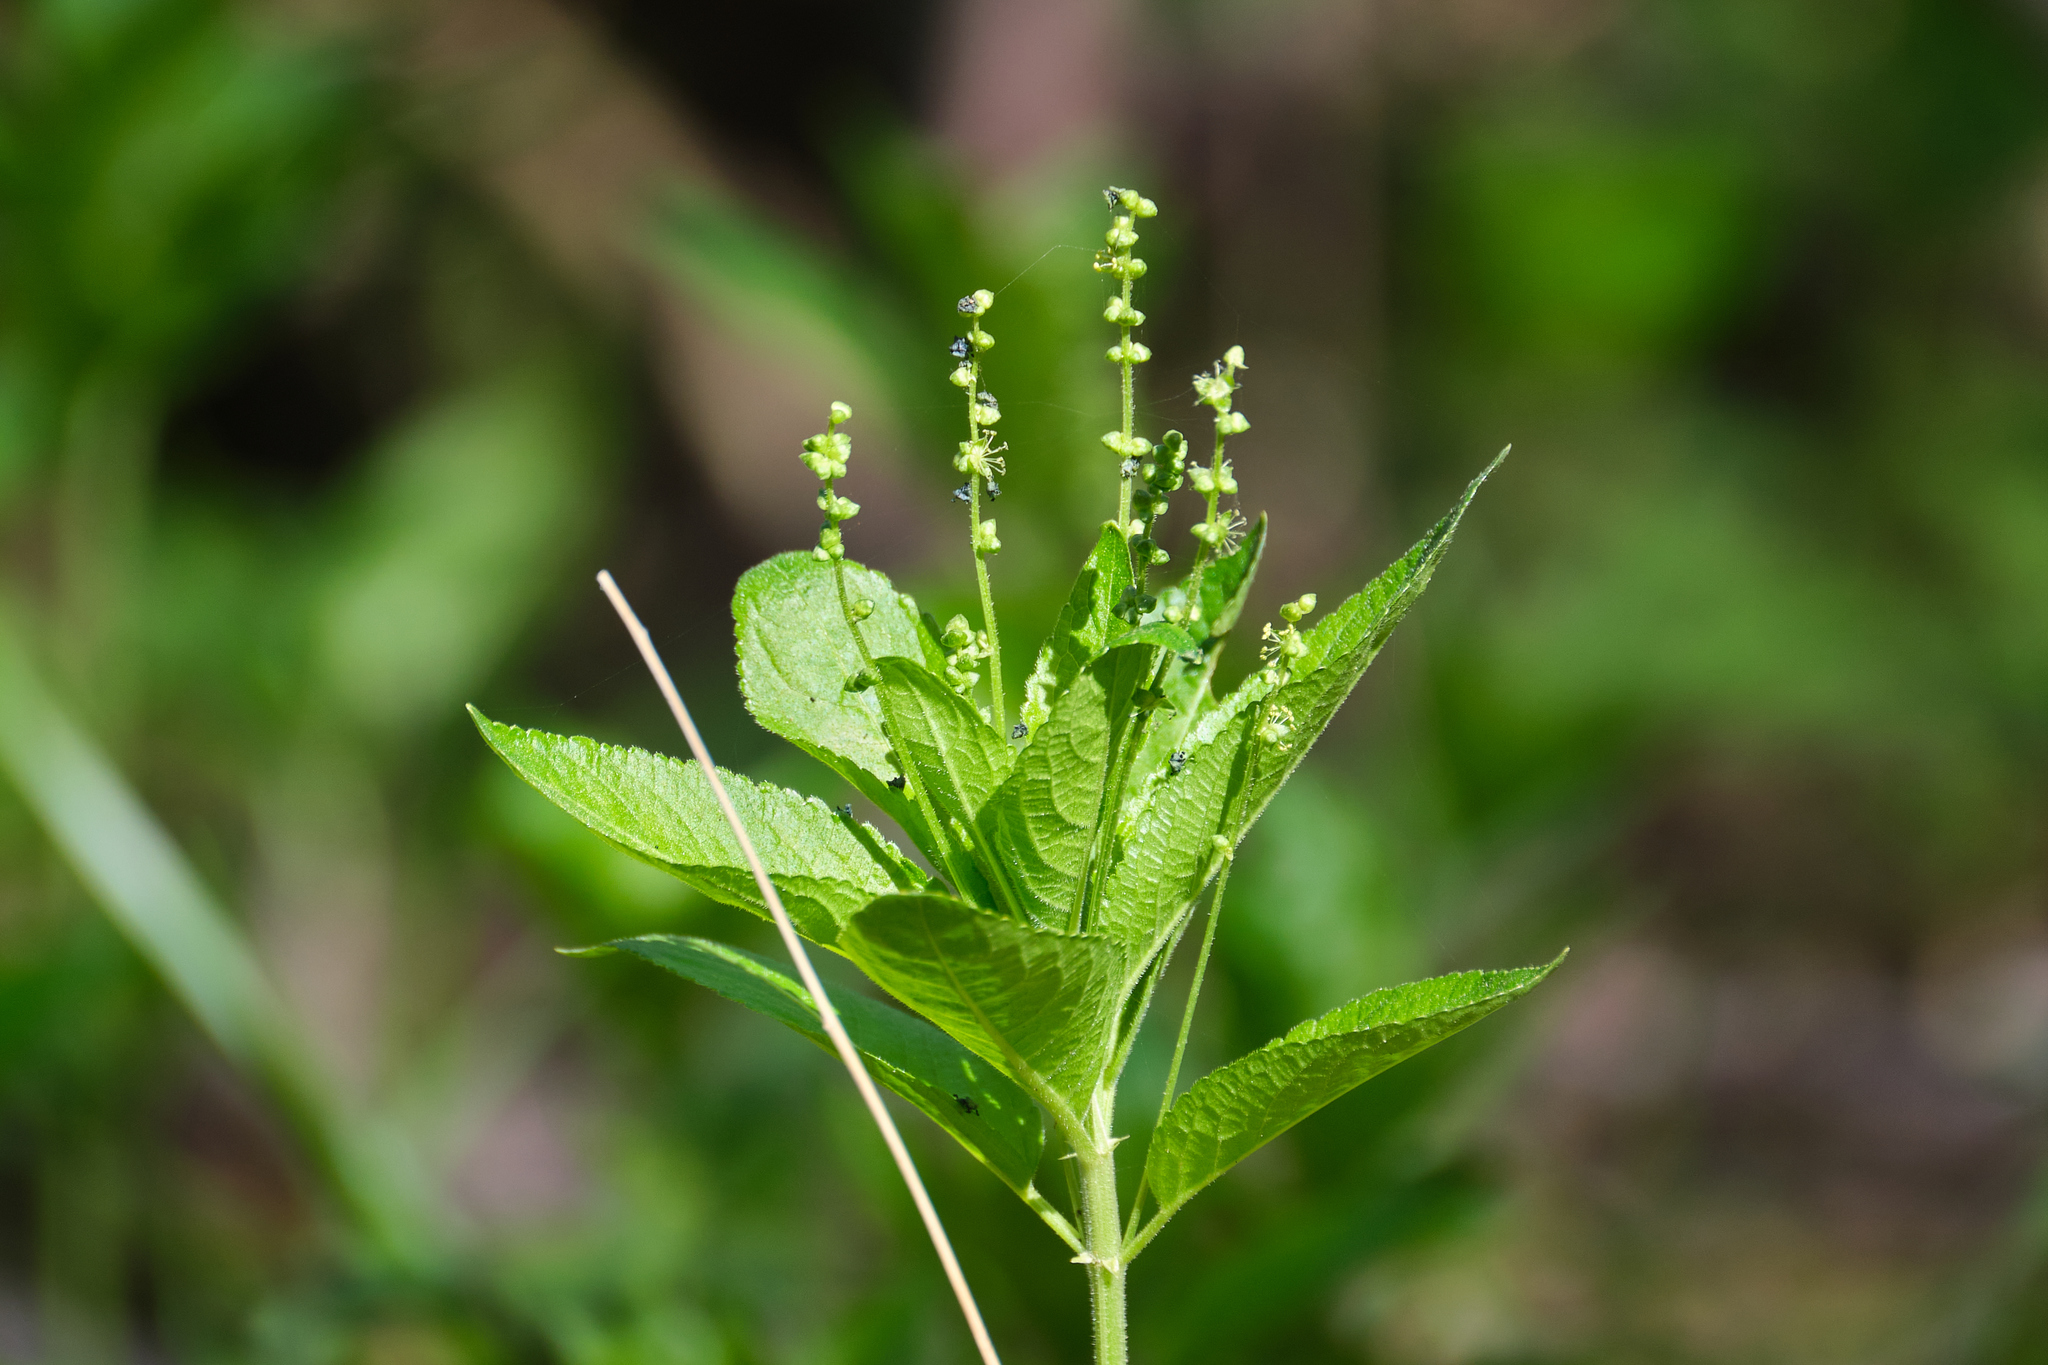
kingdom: Plantae
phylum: Tracheophyta
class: Magnoliopsida
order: Malpighiales
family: Euphorbiaceae
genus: Mercurialis
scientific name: Mercurialis perennis
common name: Dog mercury
